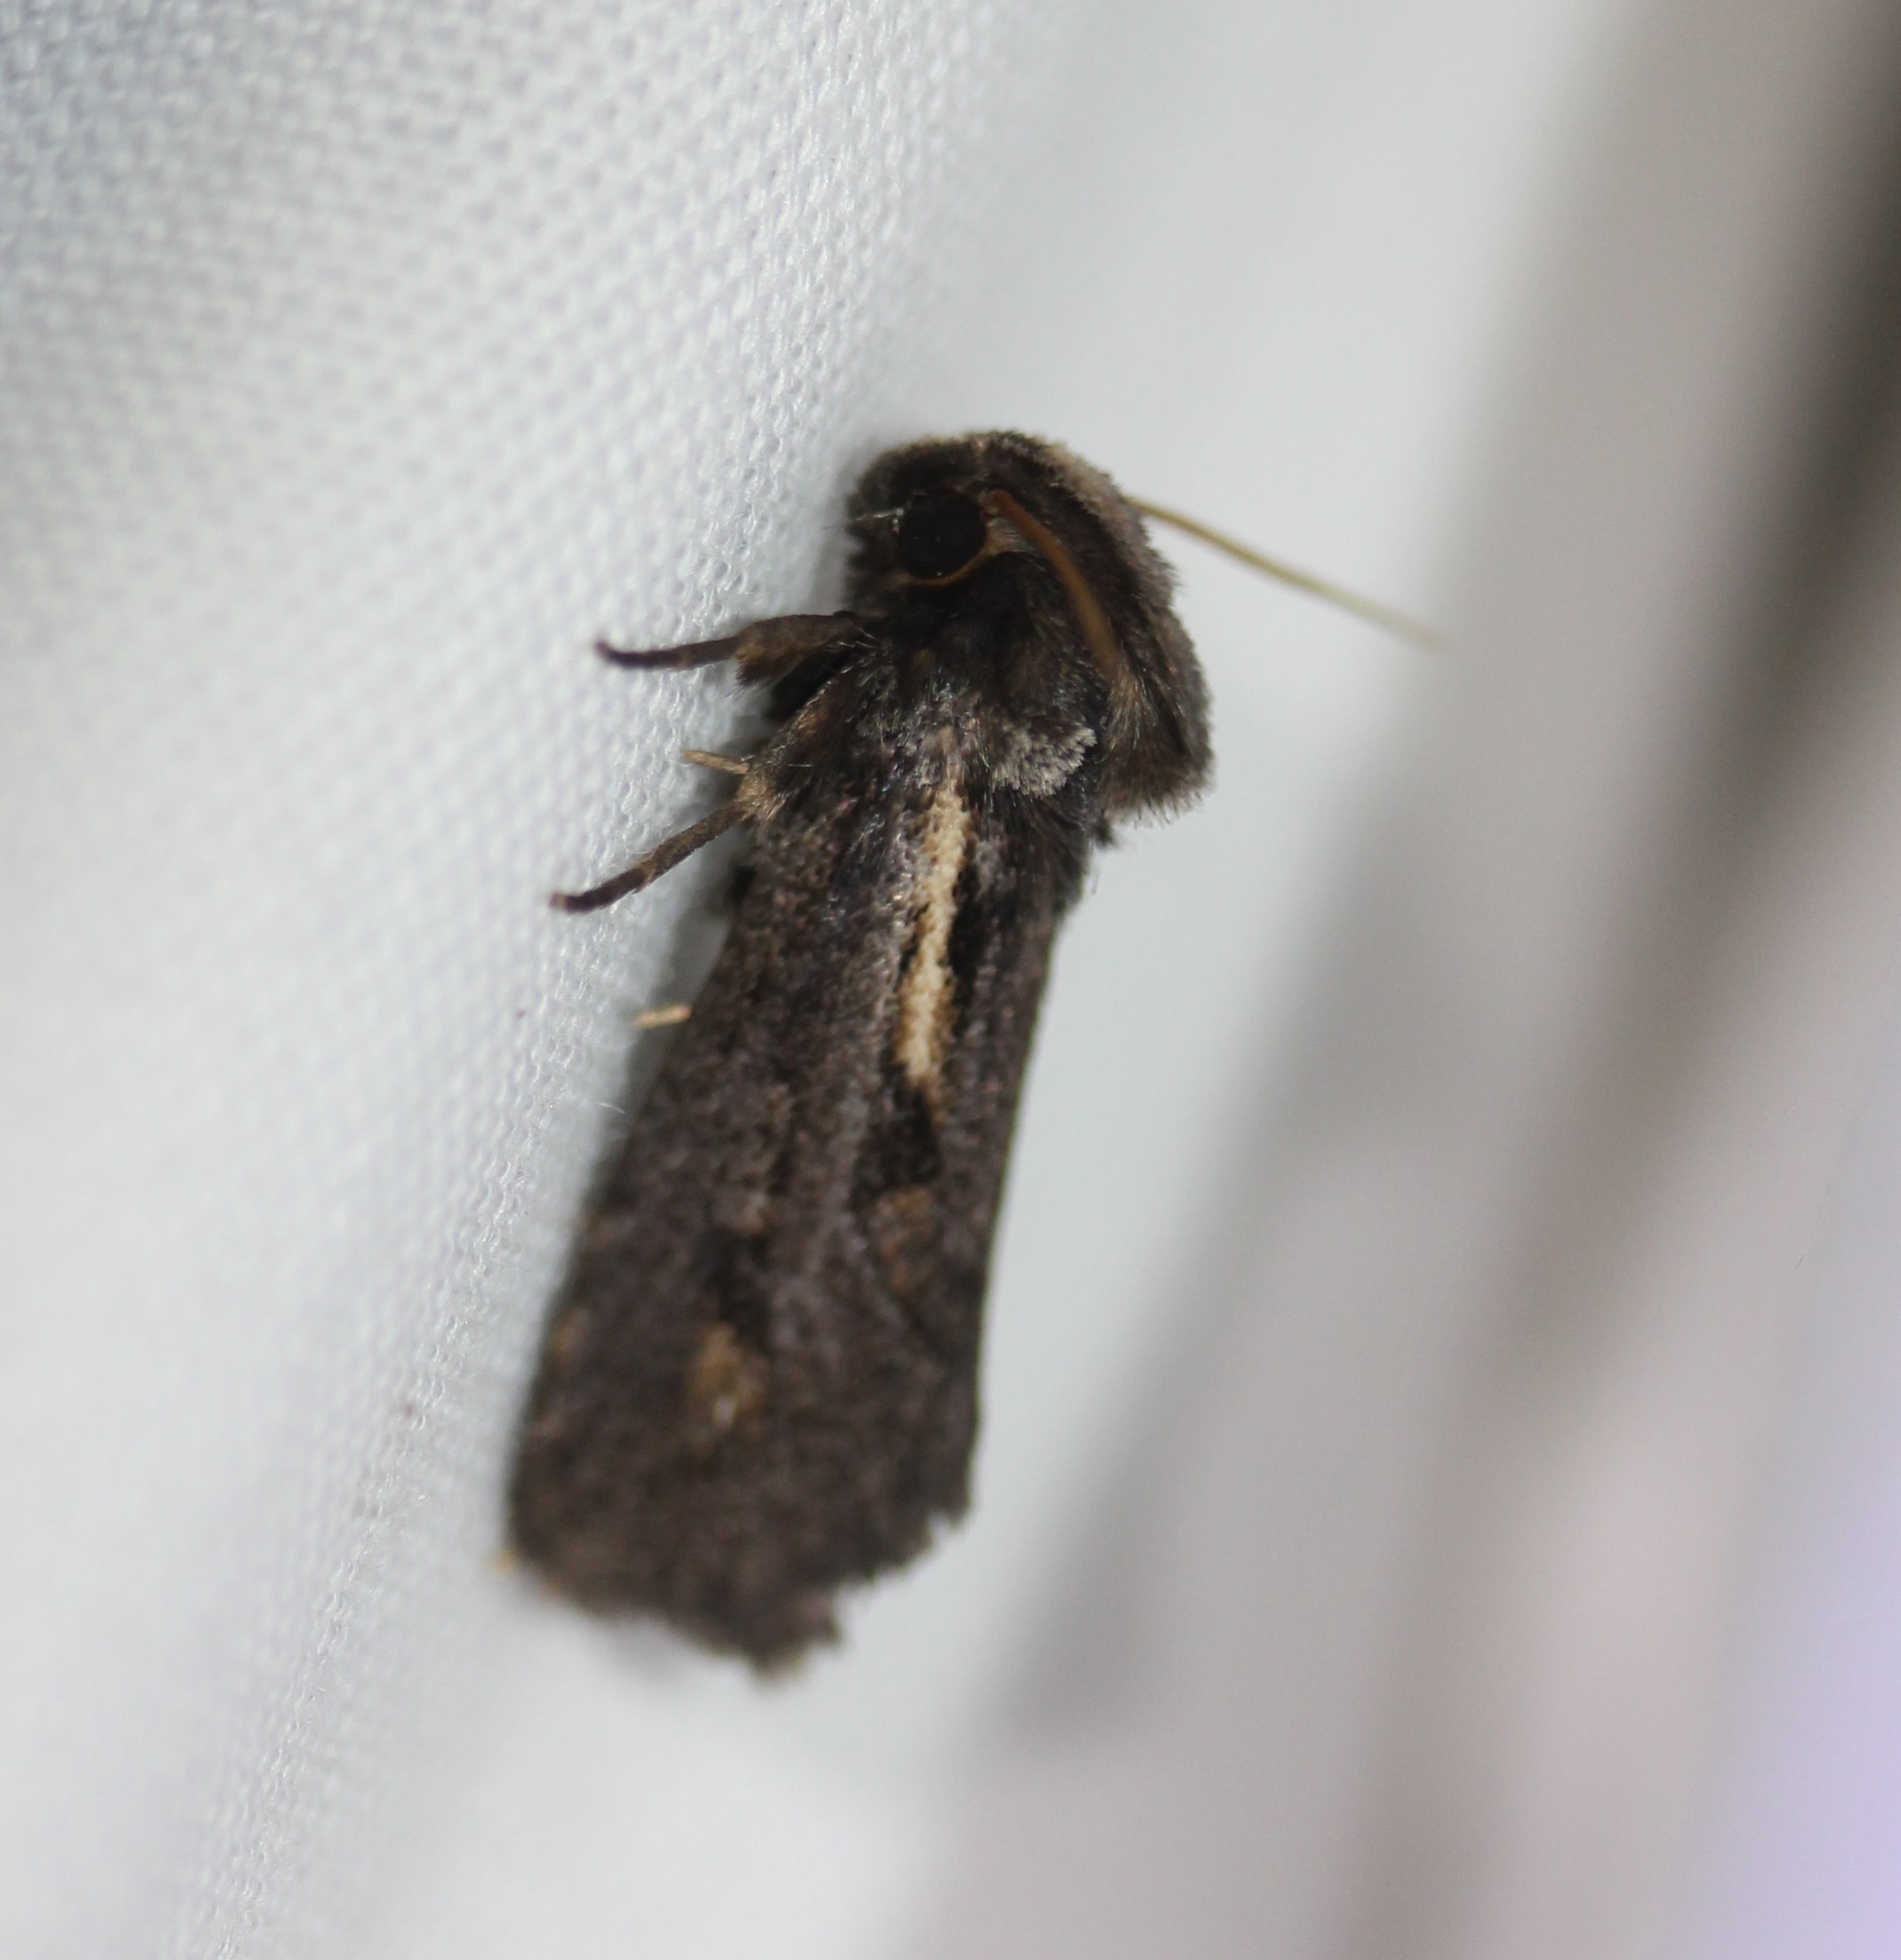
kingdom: Animalia
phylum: Arthropoda
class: Insecta
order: Lepidoptera
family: Tineidae
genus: Acrolophus
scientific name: Acrolophus popeanella
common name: Clemens' grass tubeworm moth
